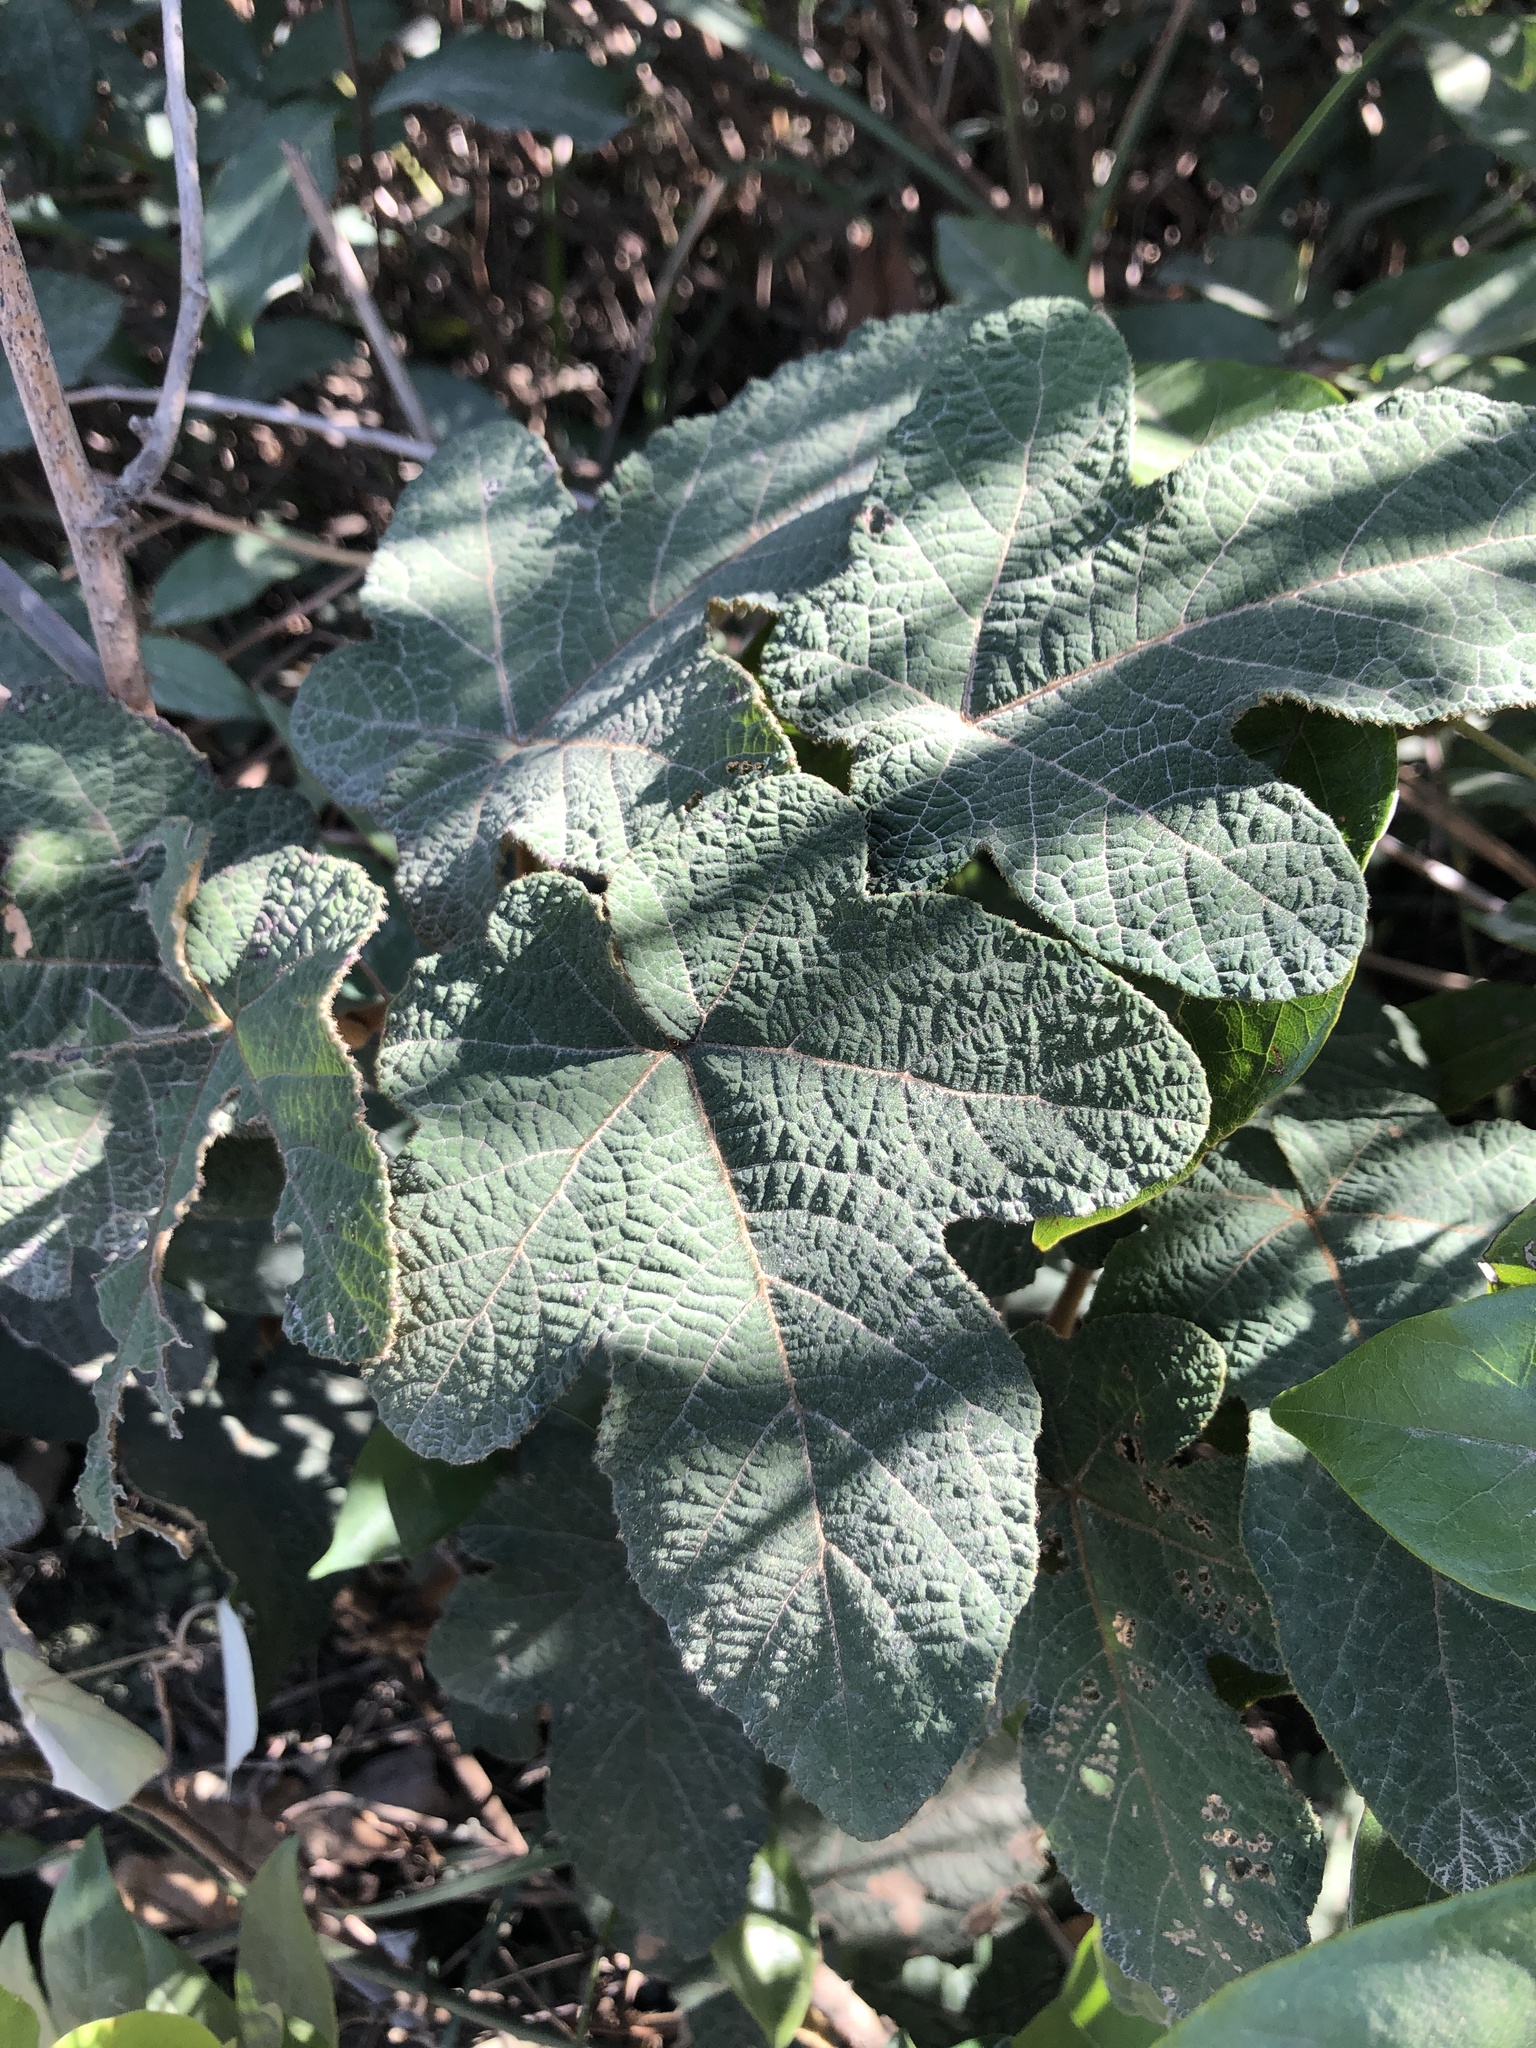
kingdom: Plantae
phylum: Tracheophyta
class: Magnoliopsida
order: Rosales
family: Rosaceae
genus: Rubus
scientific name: Rubus reflexus
